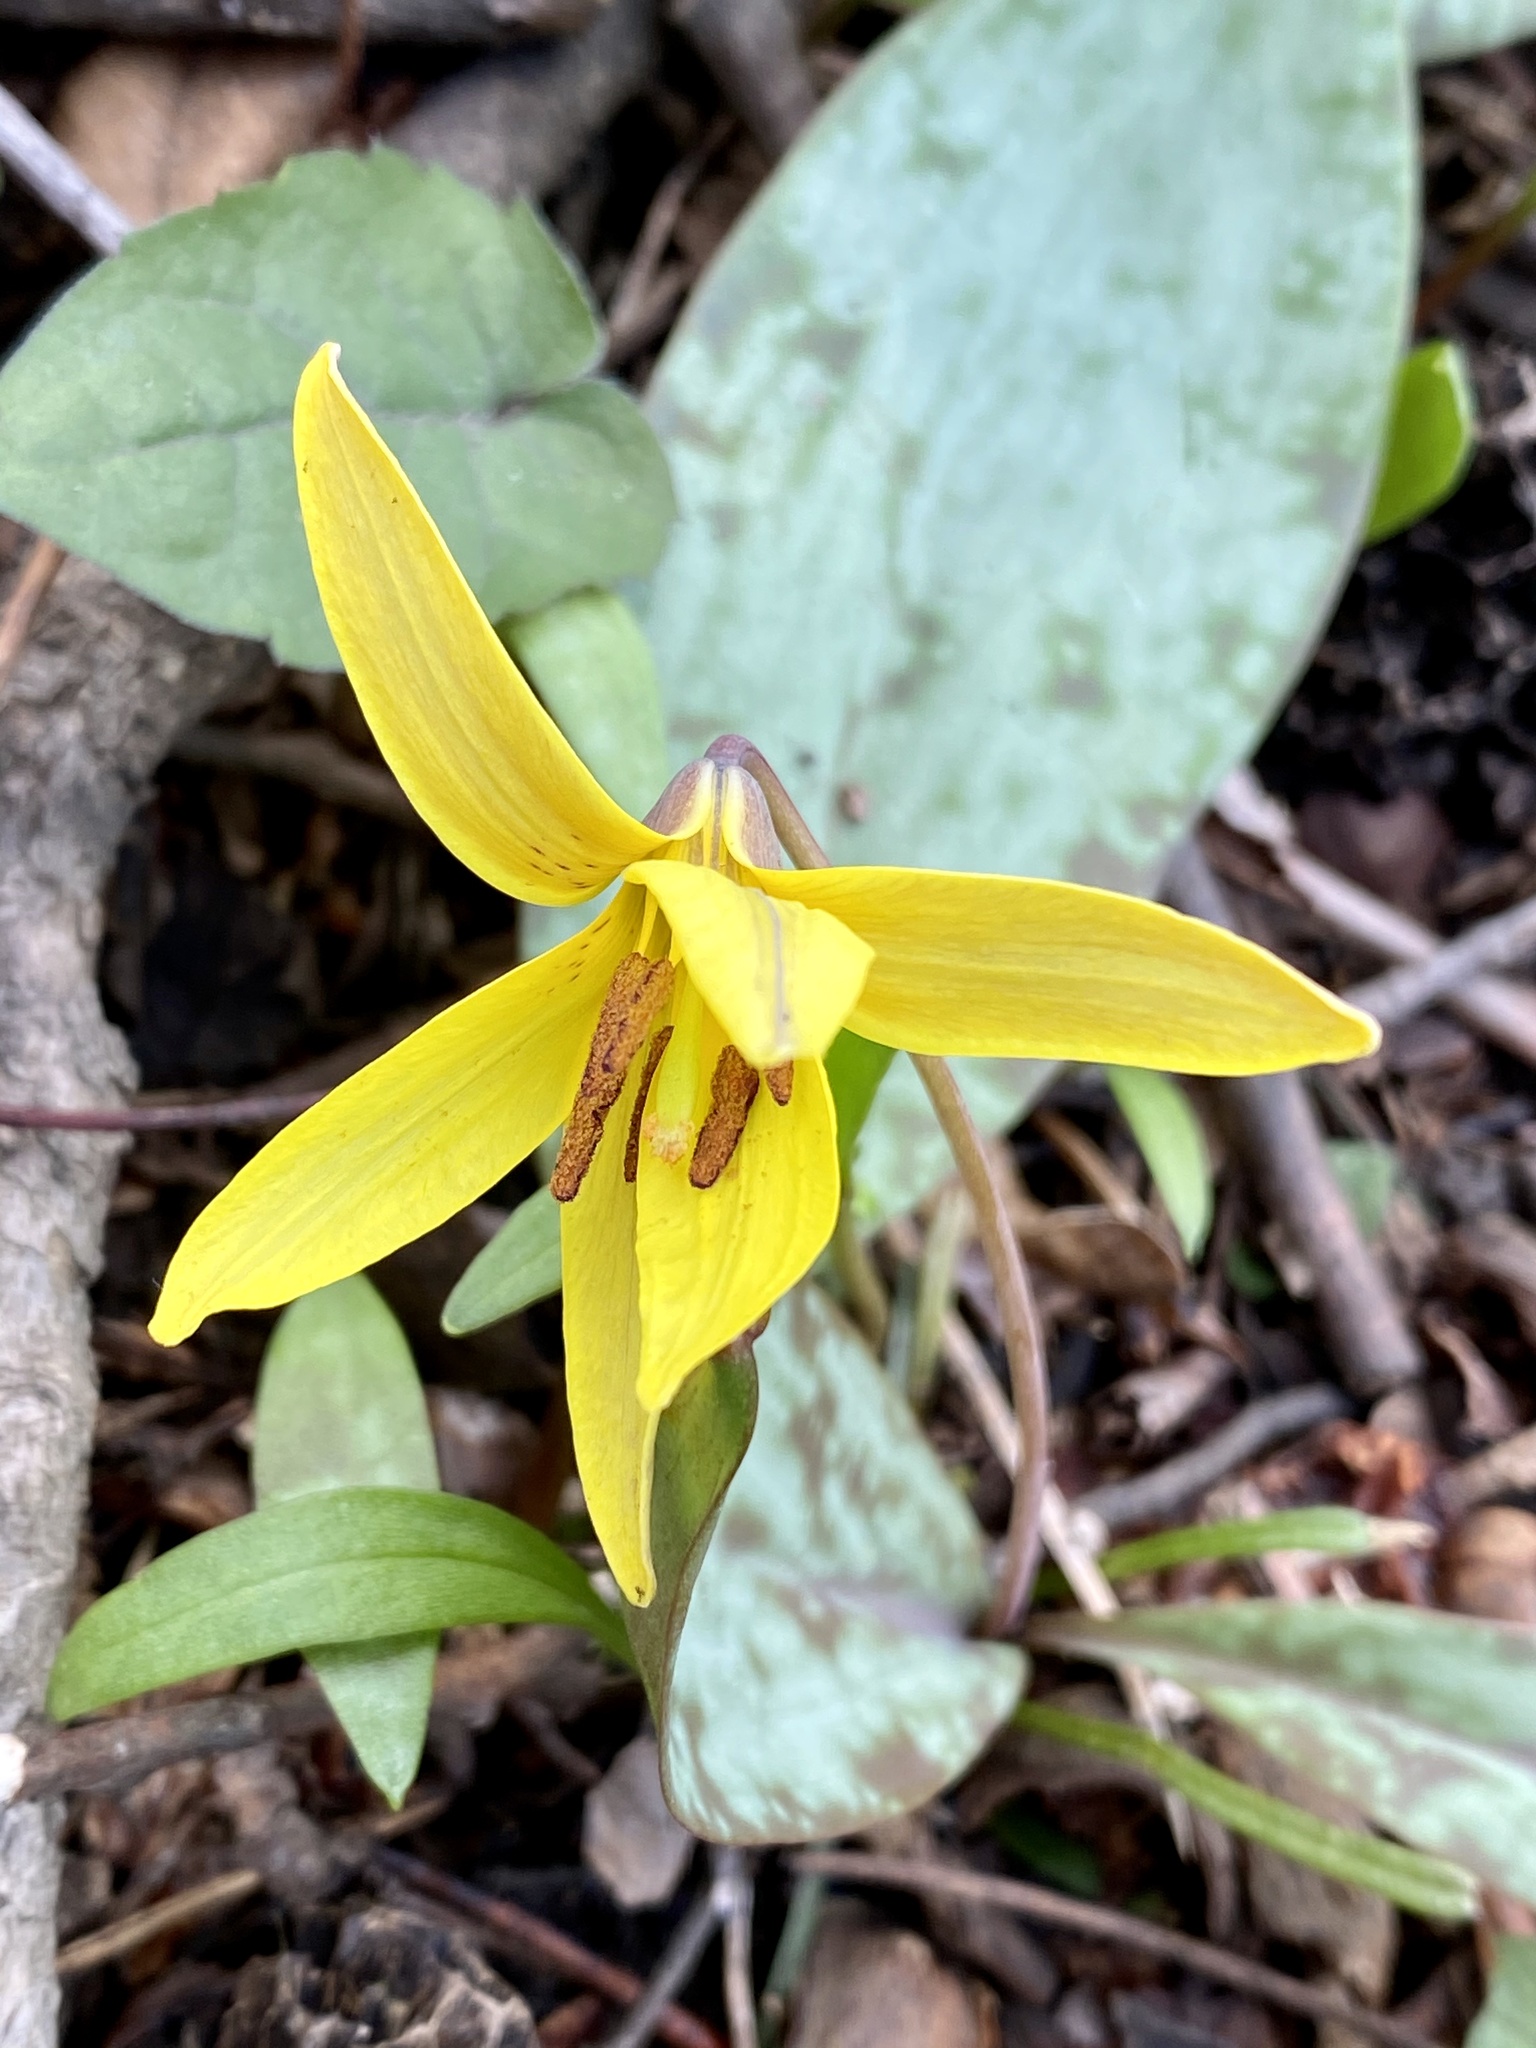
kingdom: Plantae
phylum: Tracheophyta
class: Liliopsida
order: Liliales
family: Liliaceae
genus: Erythronium
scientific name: Erythronium americanum
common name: Yellow adder's-tongue
